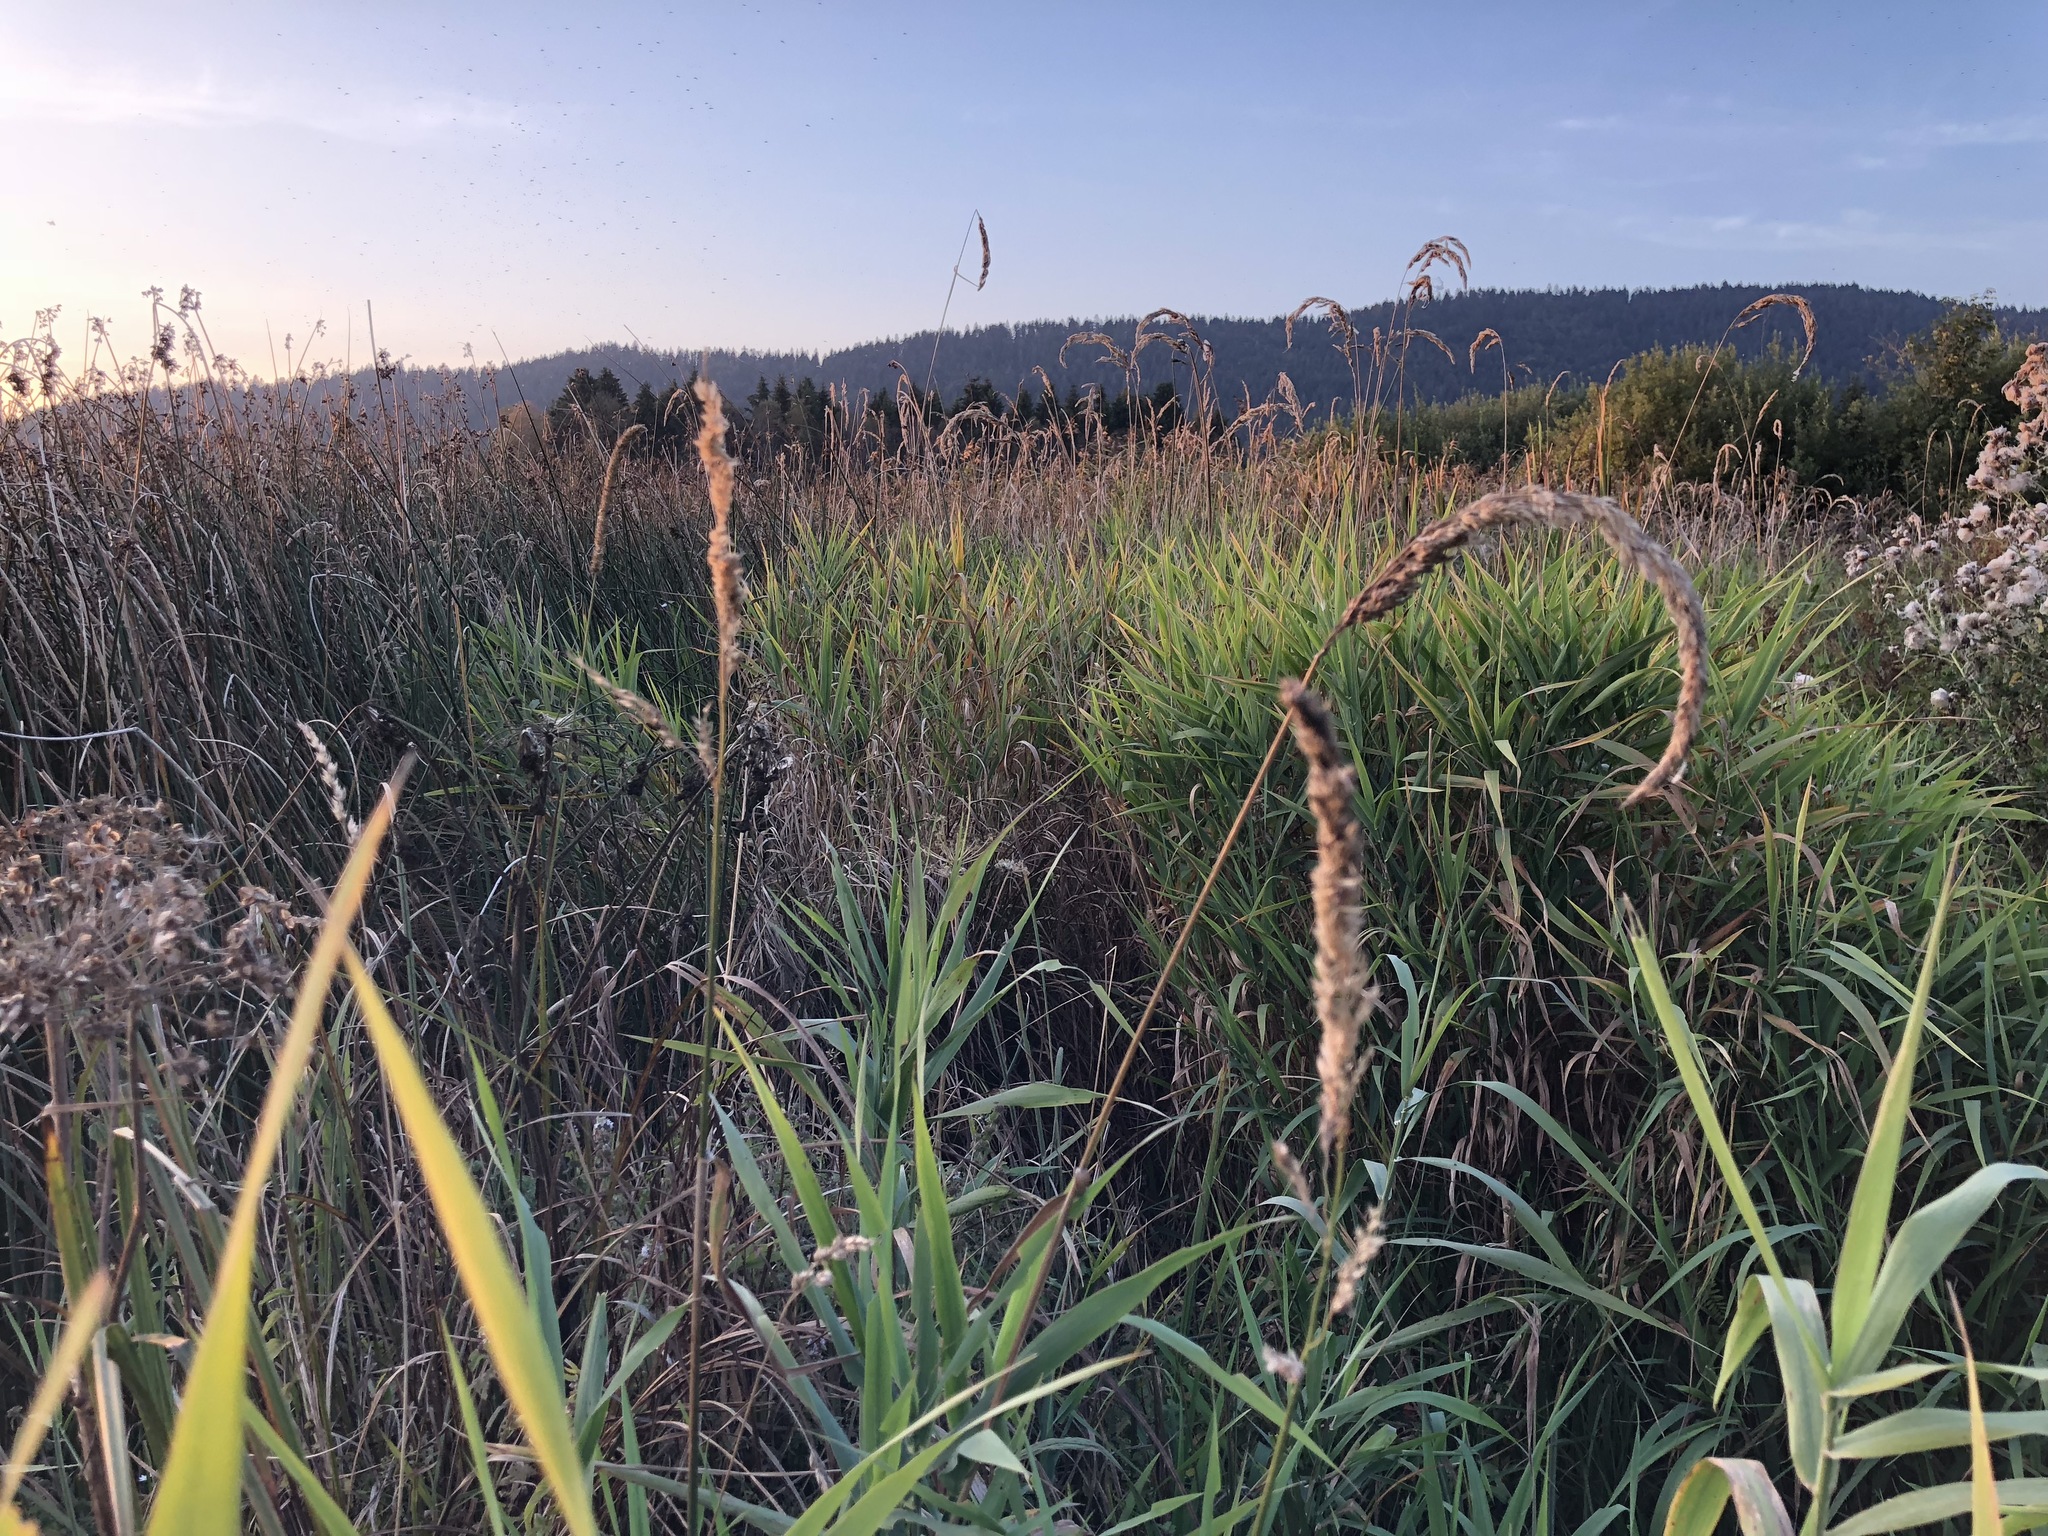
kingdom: Plantae
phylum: Tracheophyta
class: Liliopsida
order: Poales
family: Poaceae
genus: Phalaris
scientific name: Phalaris arundinacea
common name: Reed canary-grass
